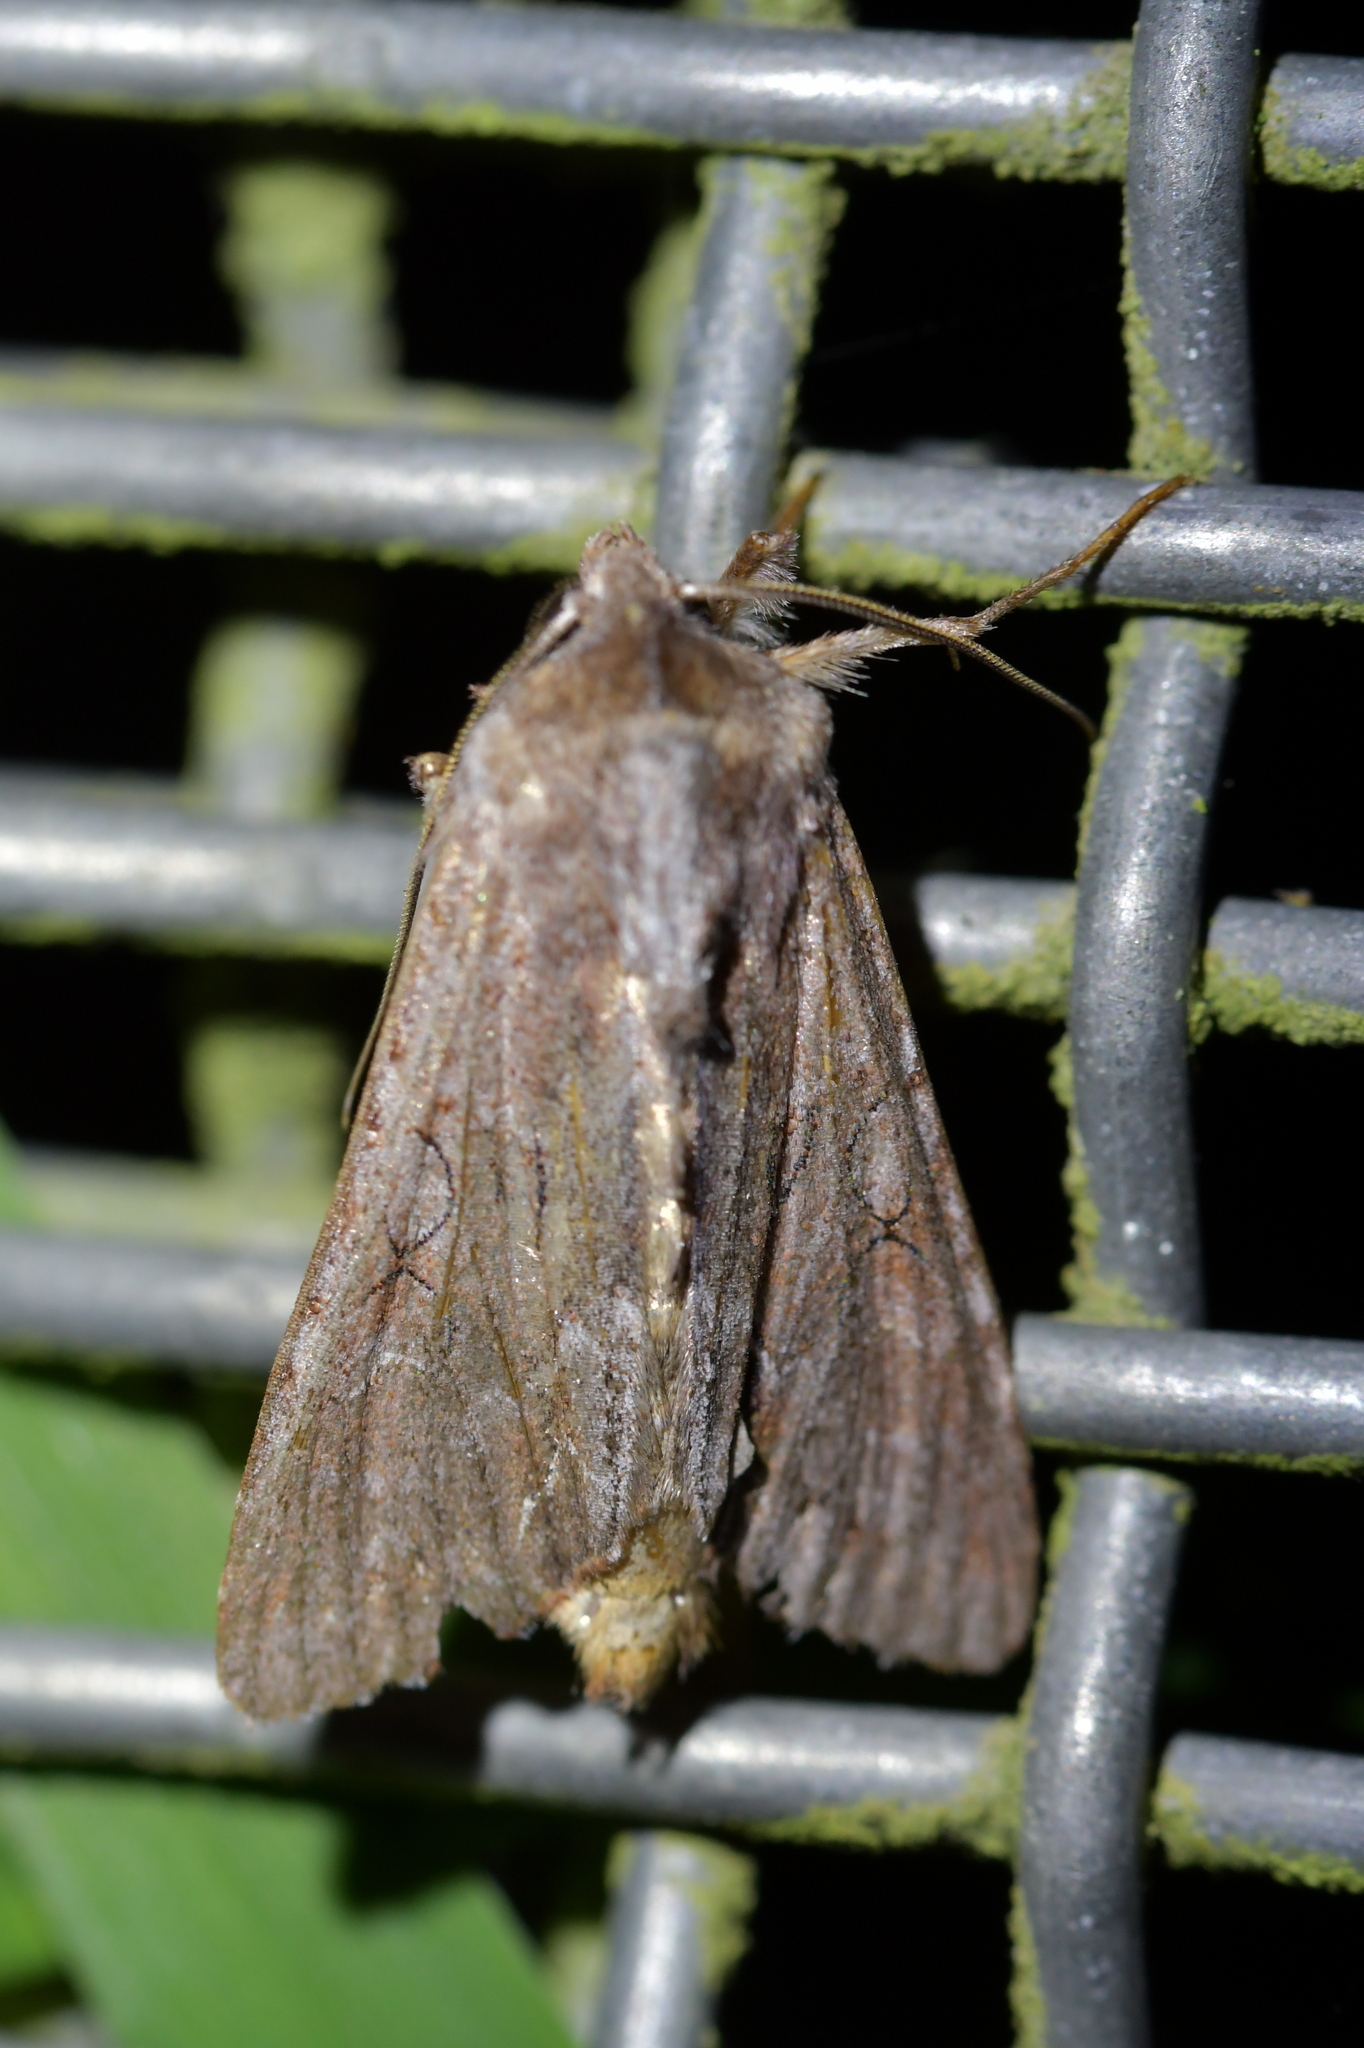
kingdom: Animalia
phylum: Arthropoda
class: Insecta
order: Lepidoptera
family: Noctuidae
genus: Ichneutica
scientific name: Ichneutica
